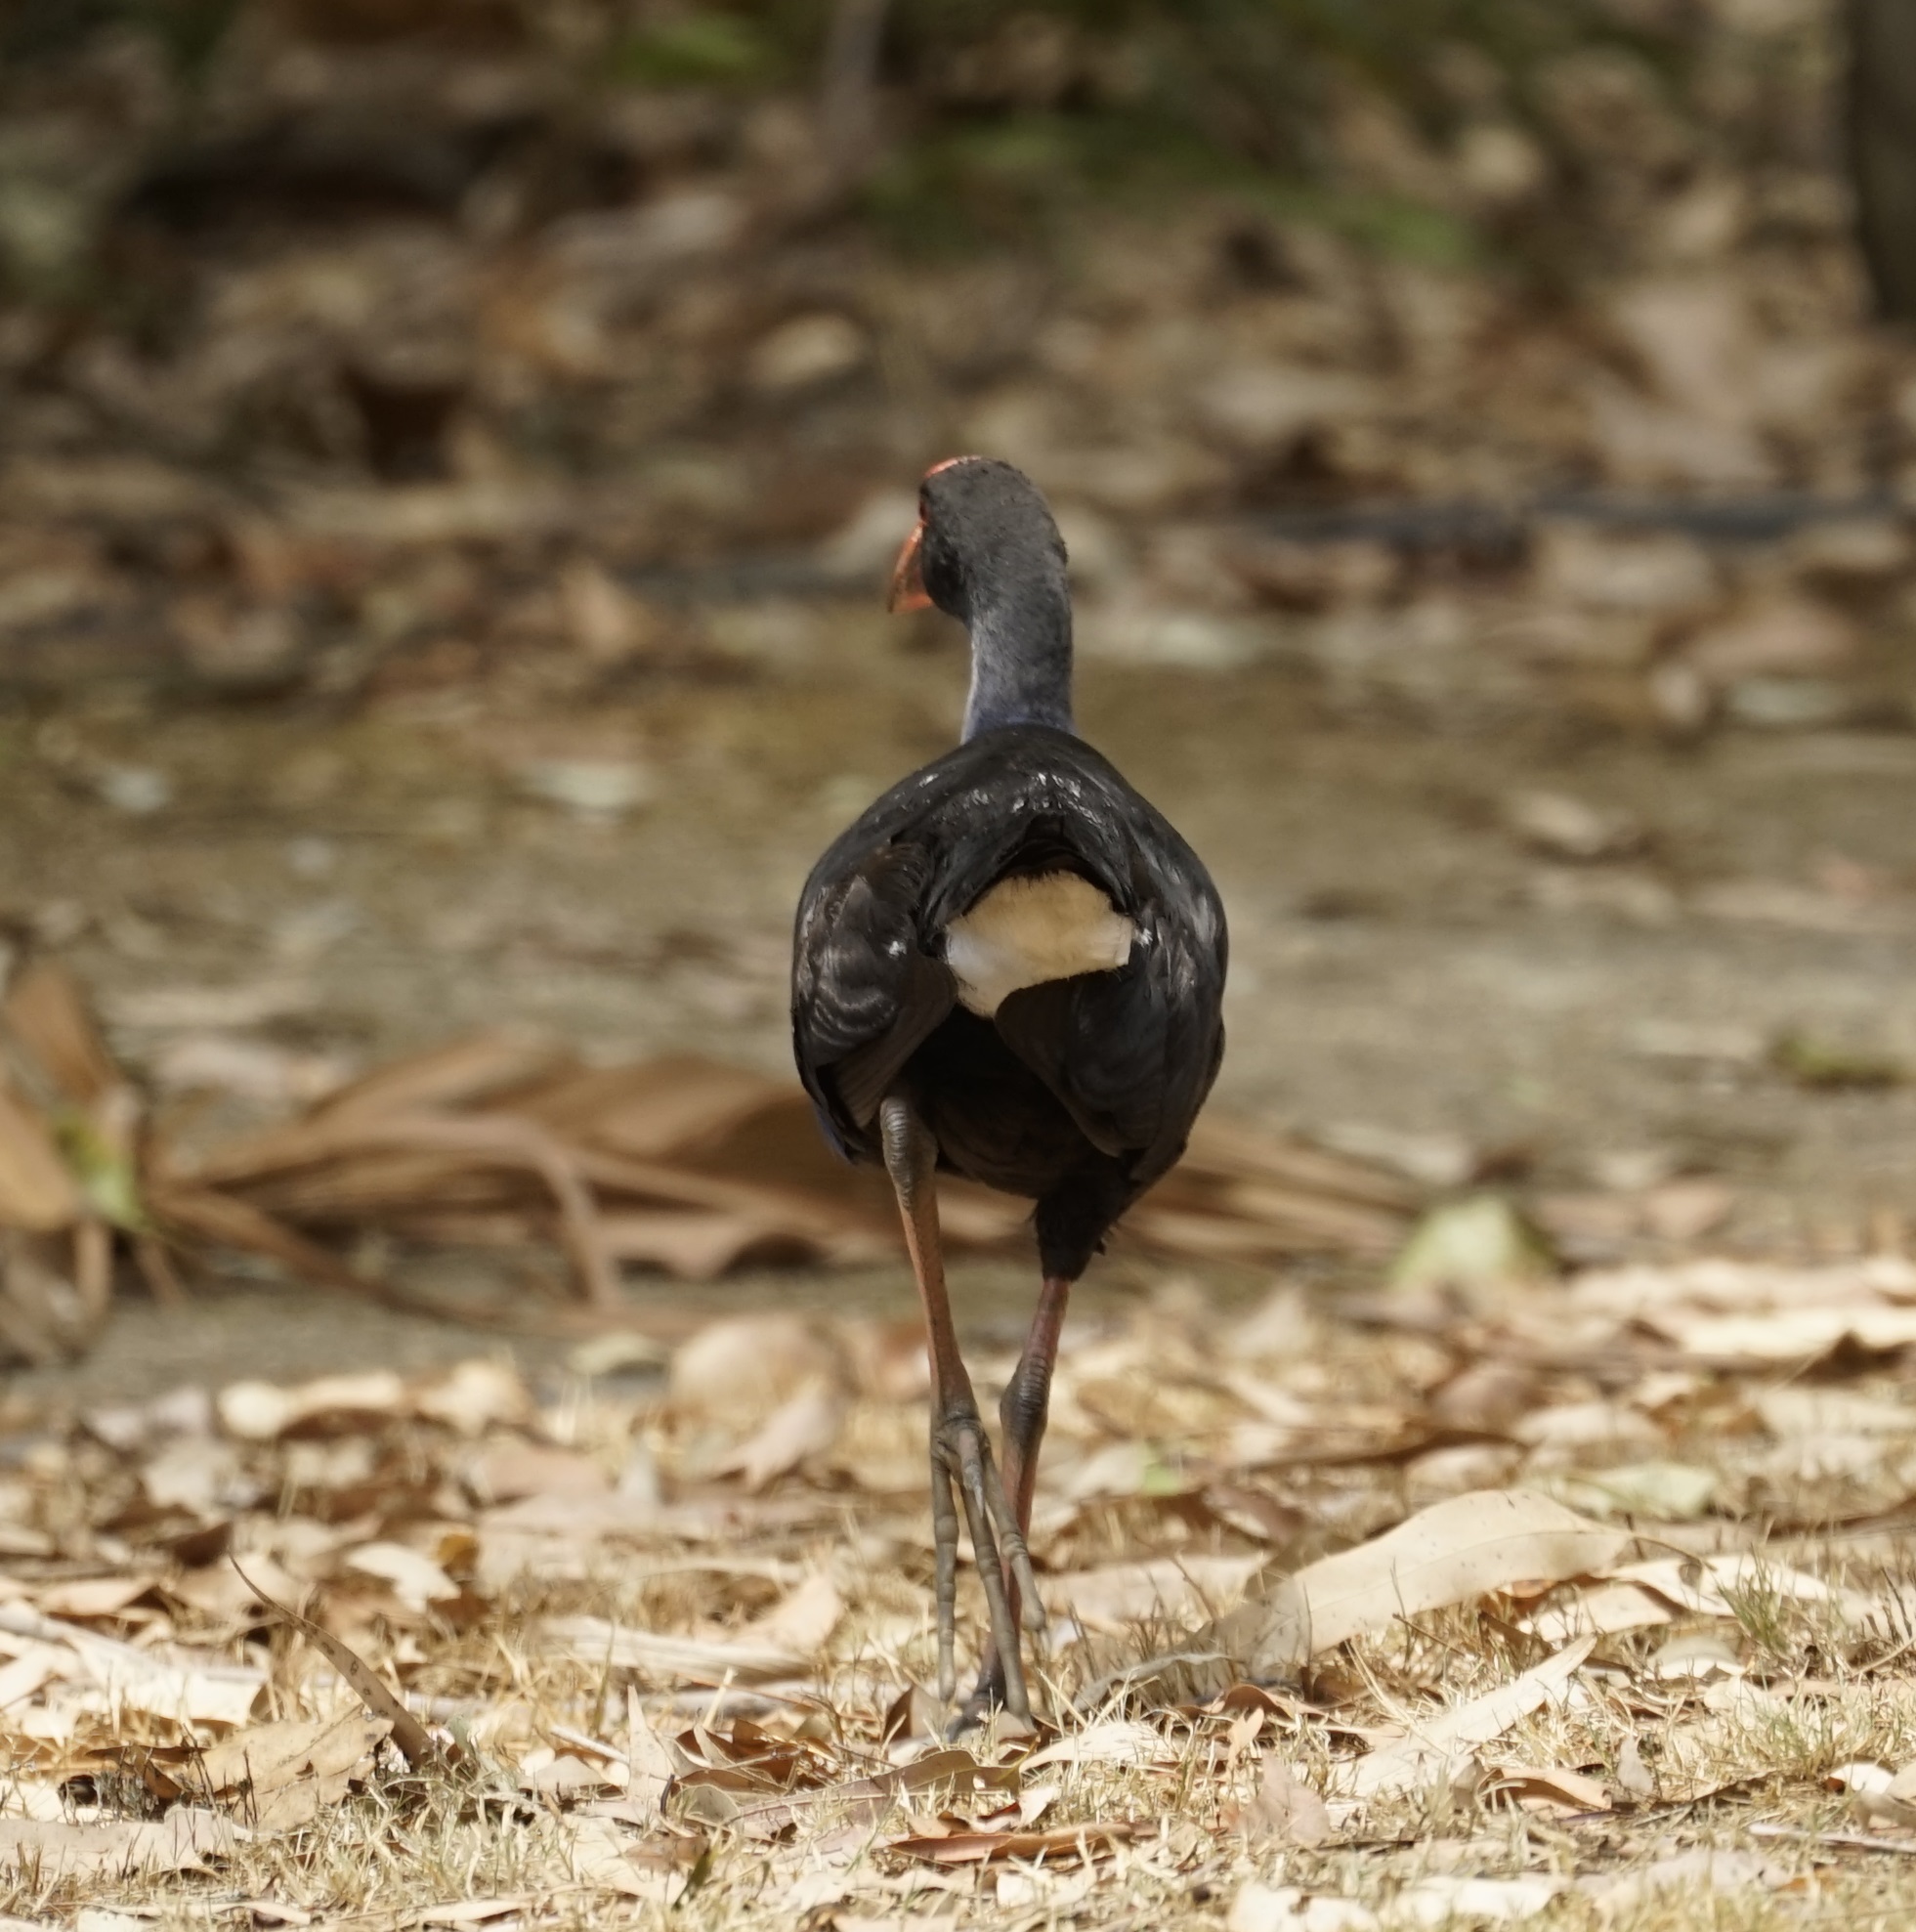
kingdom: Animalia
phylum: Chordata
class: Aves
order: Gruiformes
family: Rallidae
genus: Porphyrio
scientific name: Porphyrio melanotus
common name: Australasian swamphen
